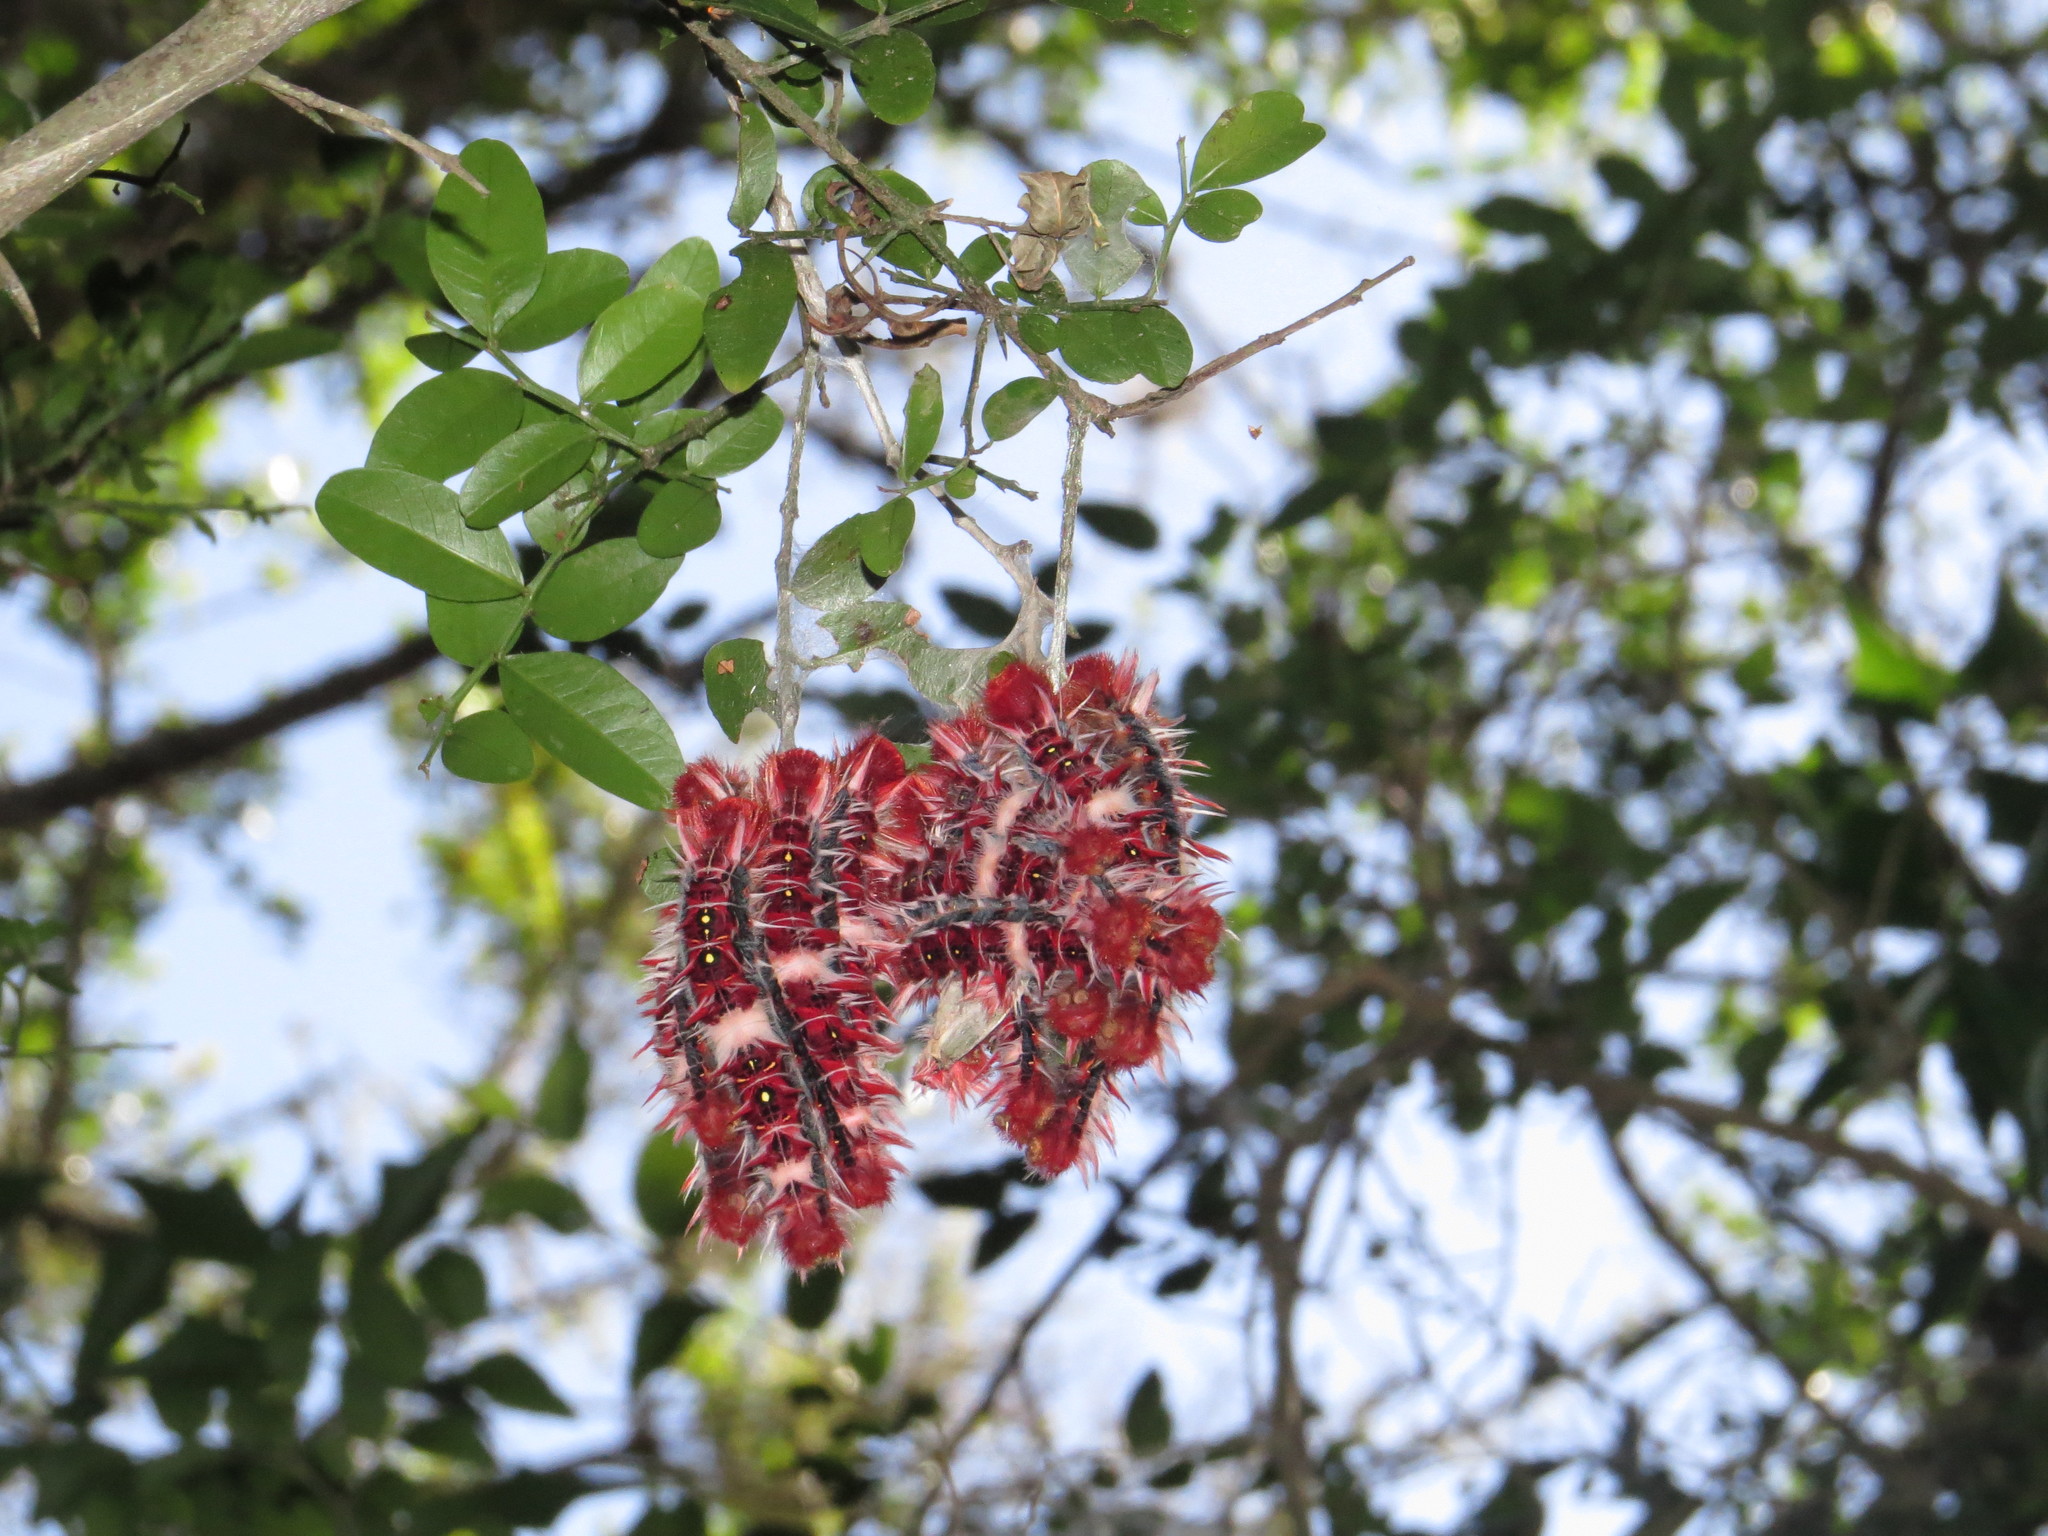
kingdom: Animalia
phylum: Arthropoda
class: Insecta
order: Lepidoptera
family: Nymphalidae
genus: Morpho
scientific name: Morpho epistrophus
